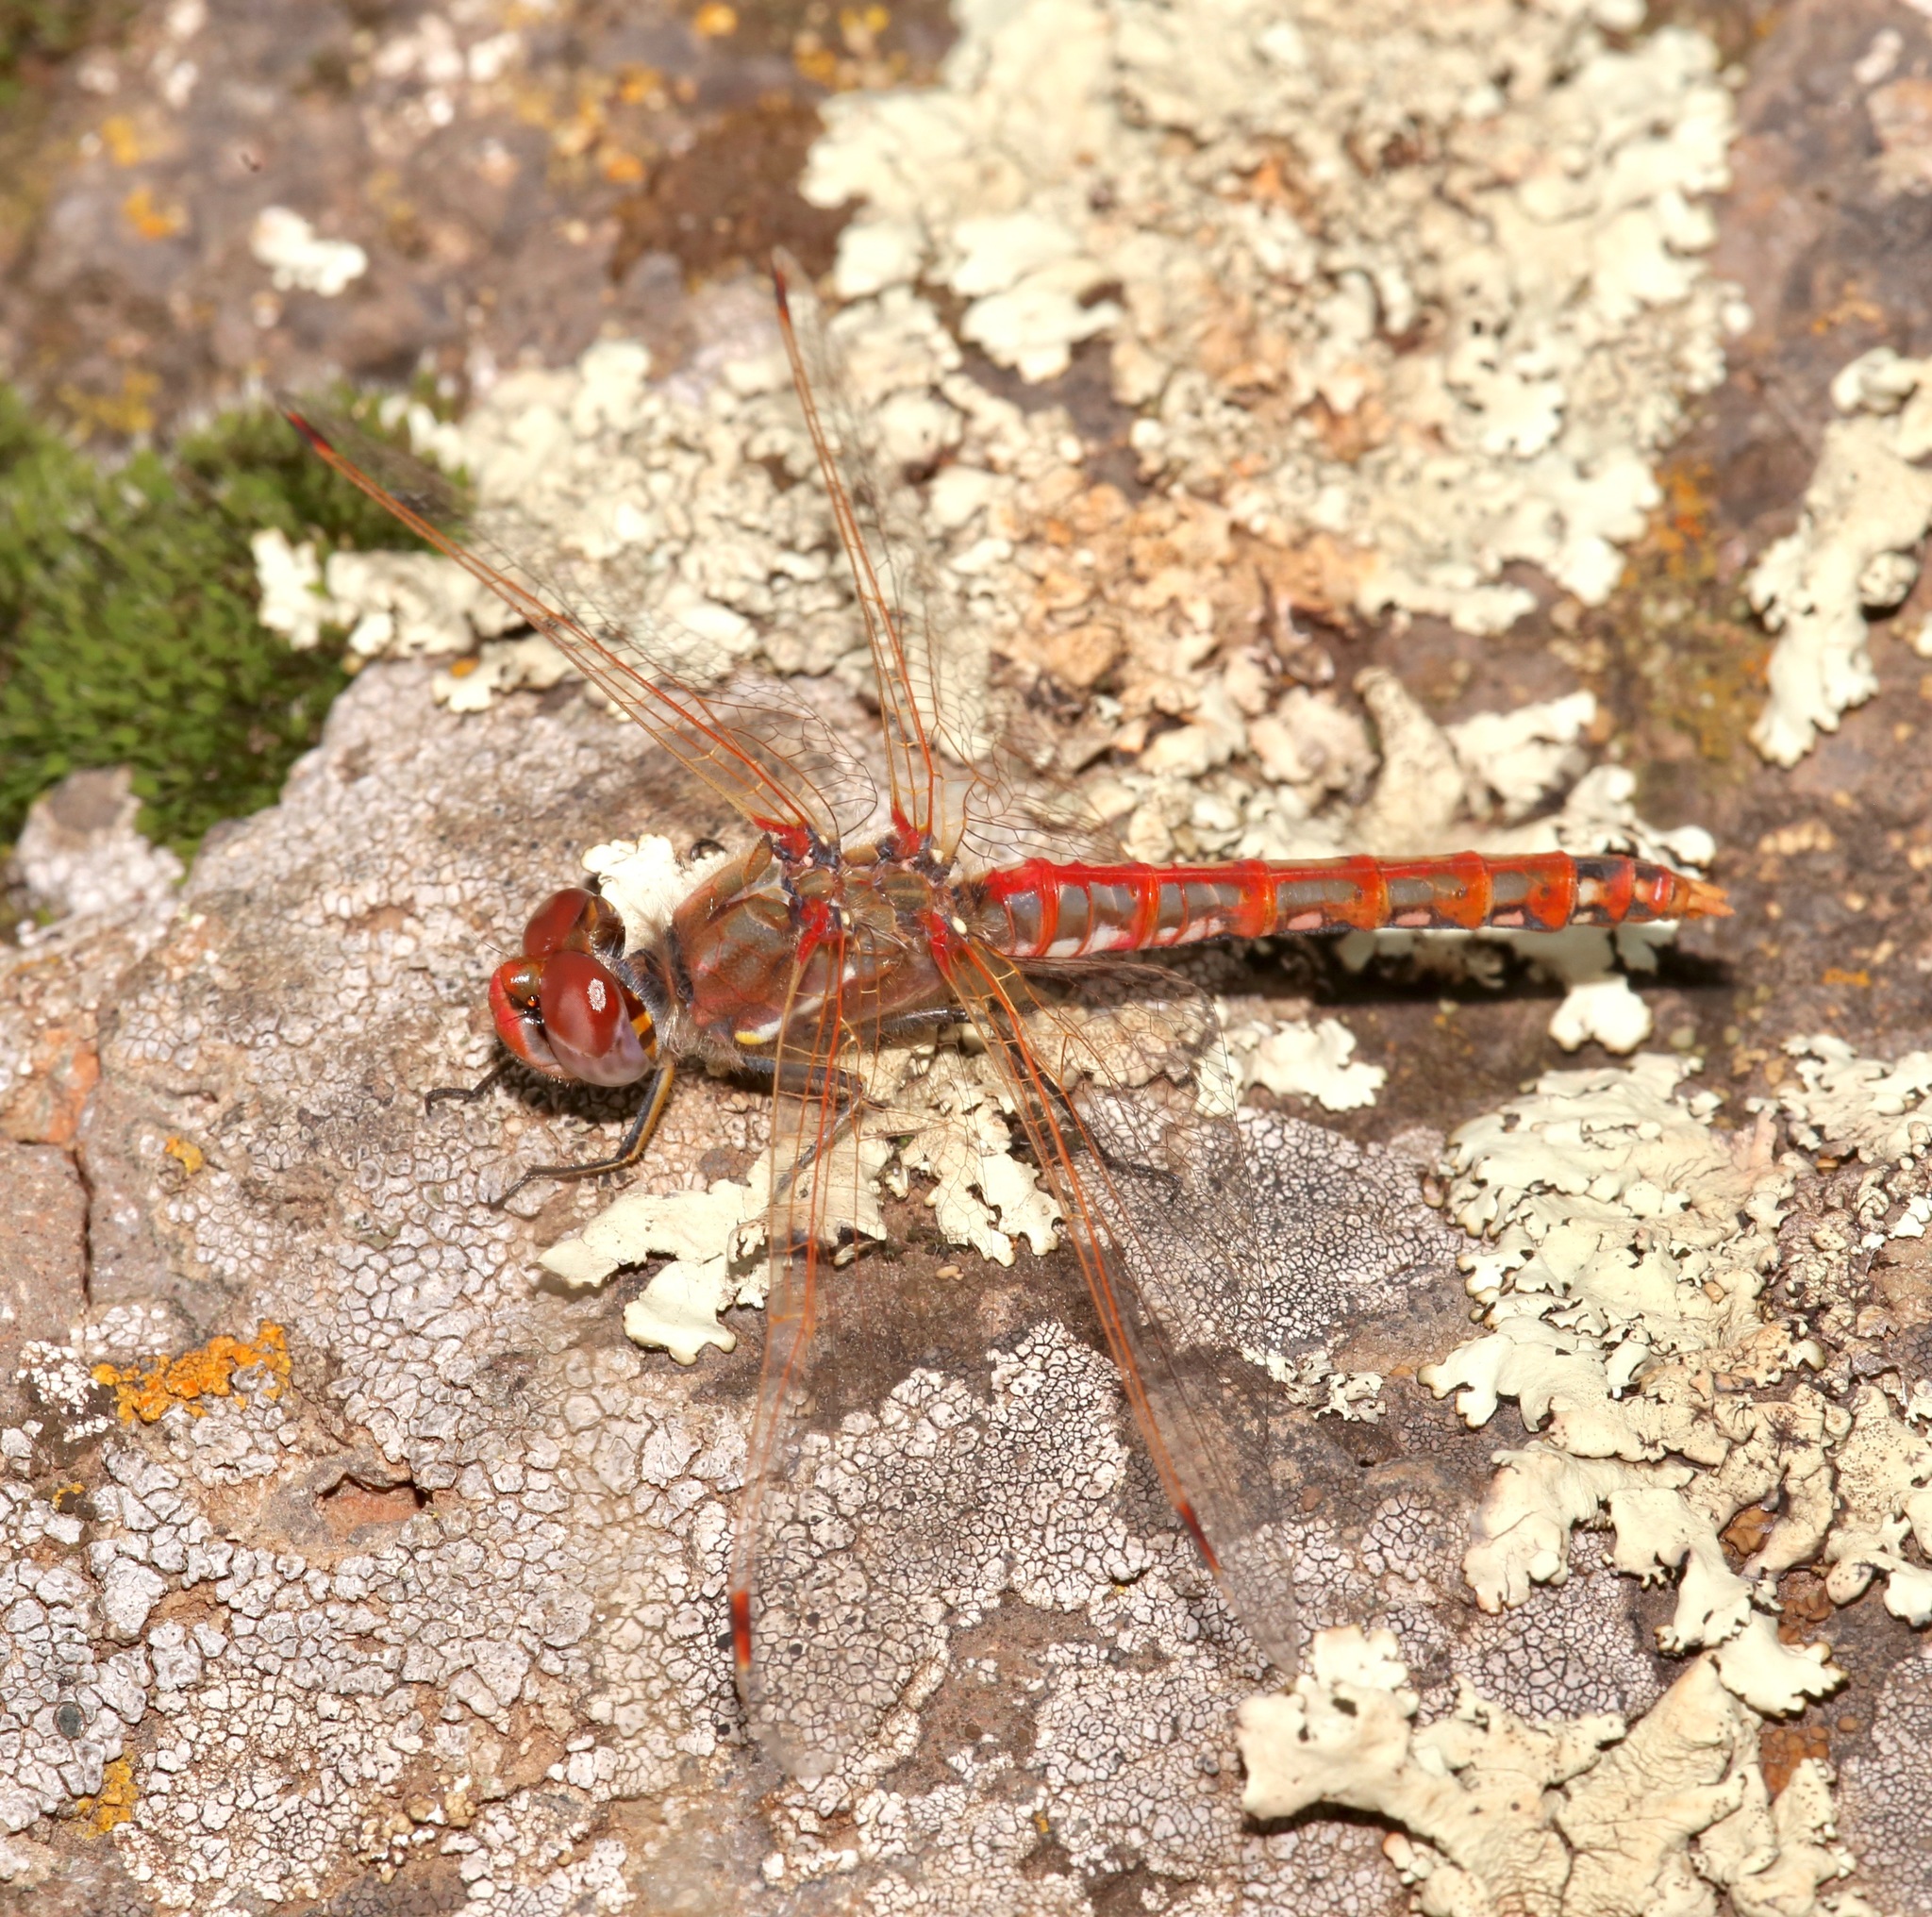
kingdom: Animalia
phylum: Arthropoda
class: Insecta
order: Odonata
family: Libellulidae
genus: Sympetrum
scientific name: Sympetrum corruptum
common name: Variegated meadowhawk
